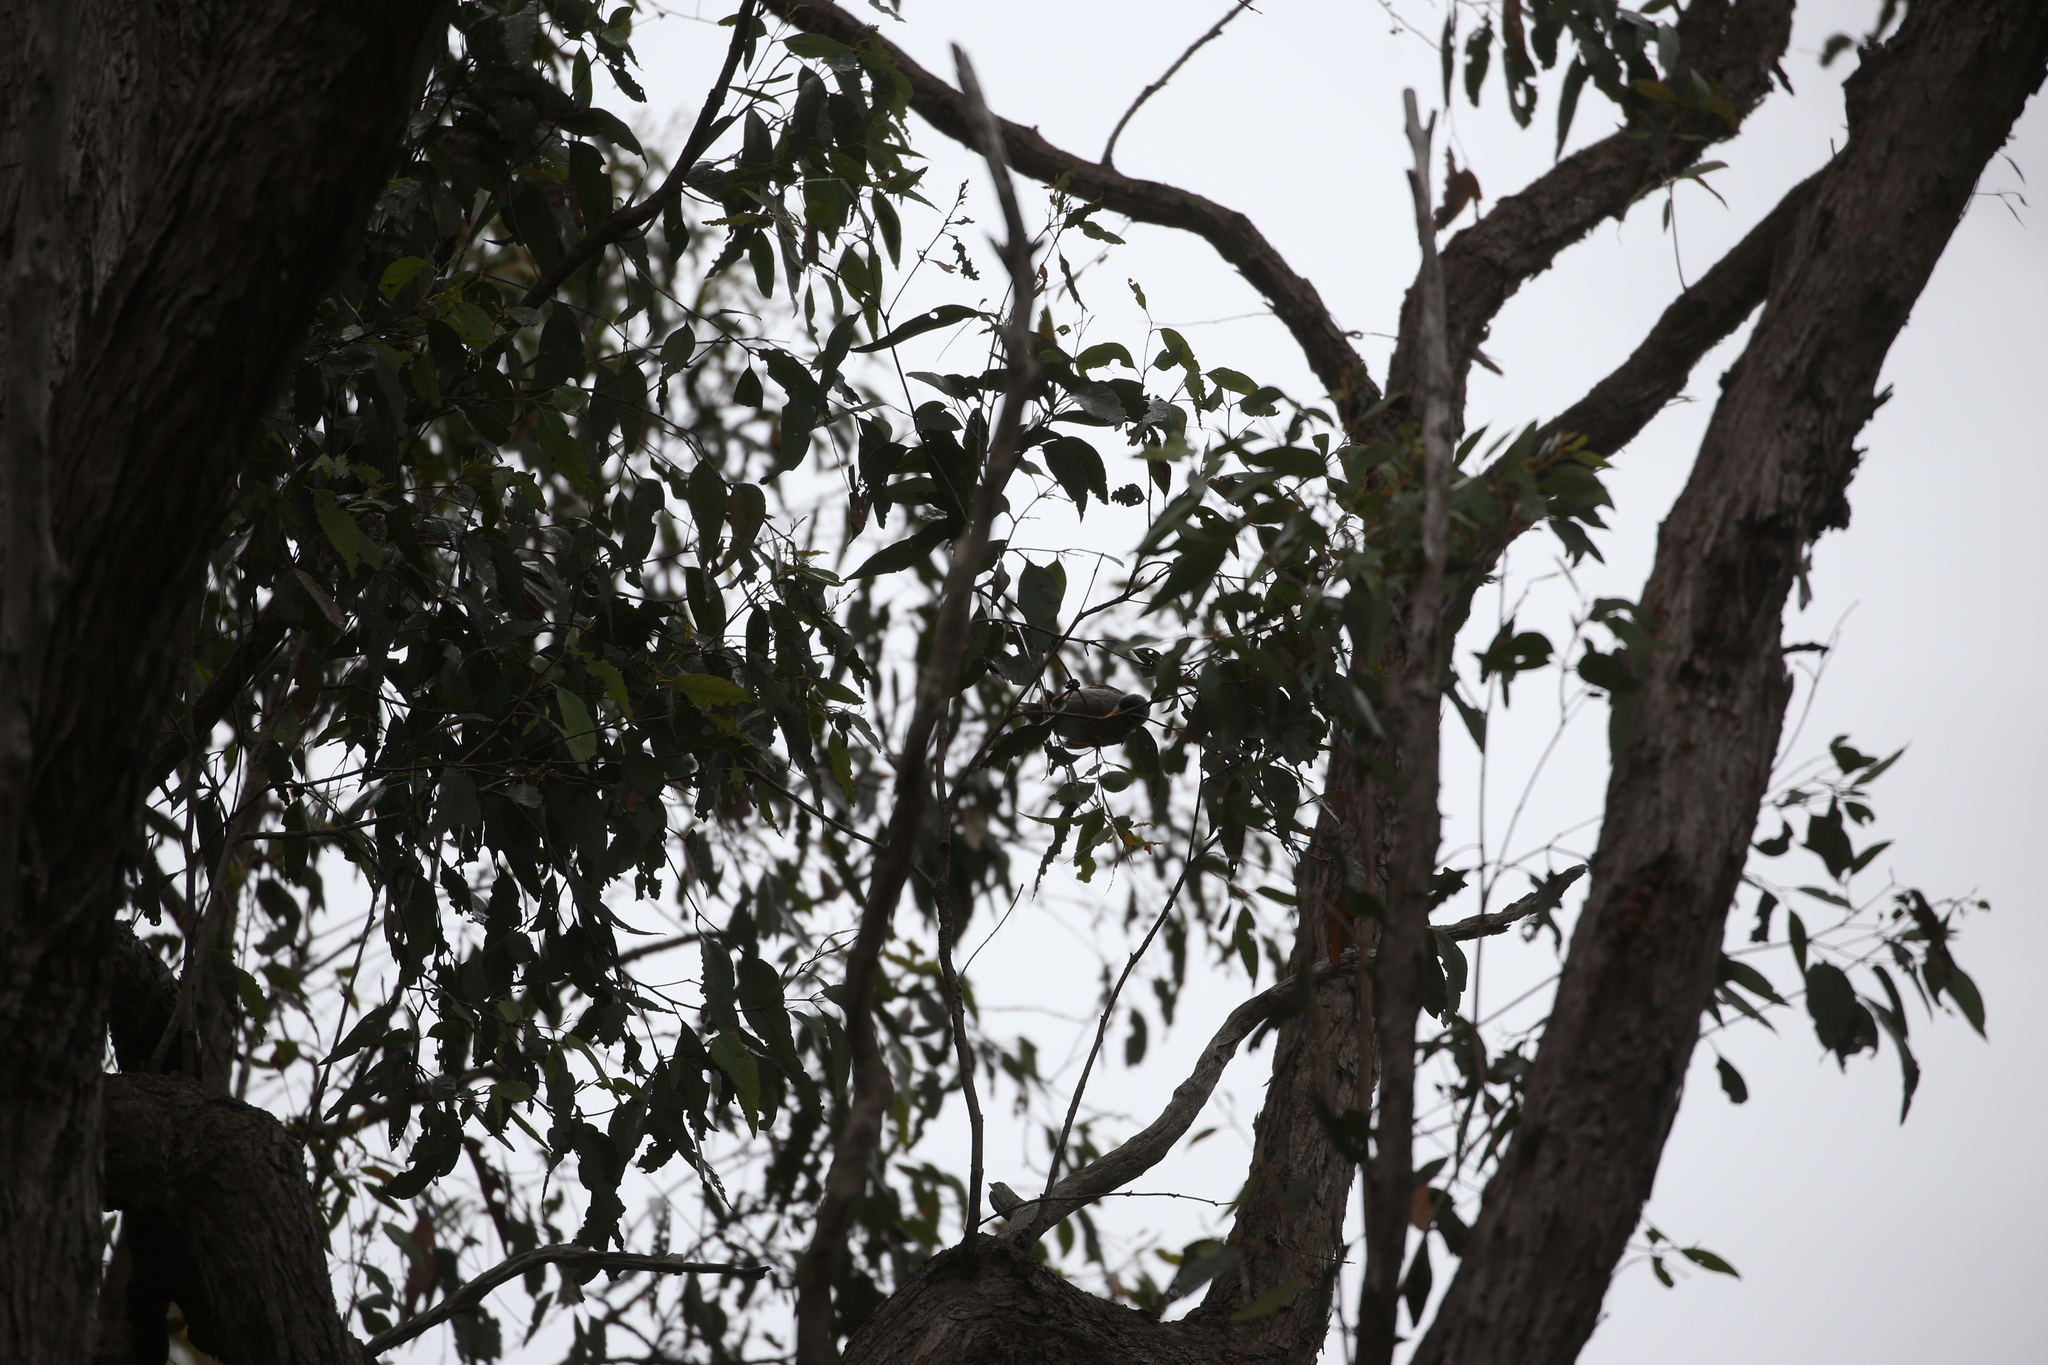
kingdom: Animalia
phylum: Chordata
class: Aves
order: Passeriformes
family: Meliphagidae
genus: Manorina
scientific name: Manorina melanocephala
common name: Noisy miner
